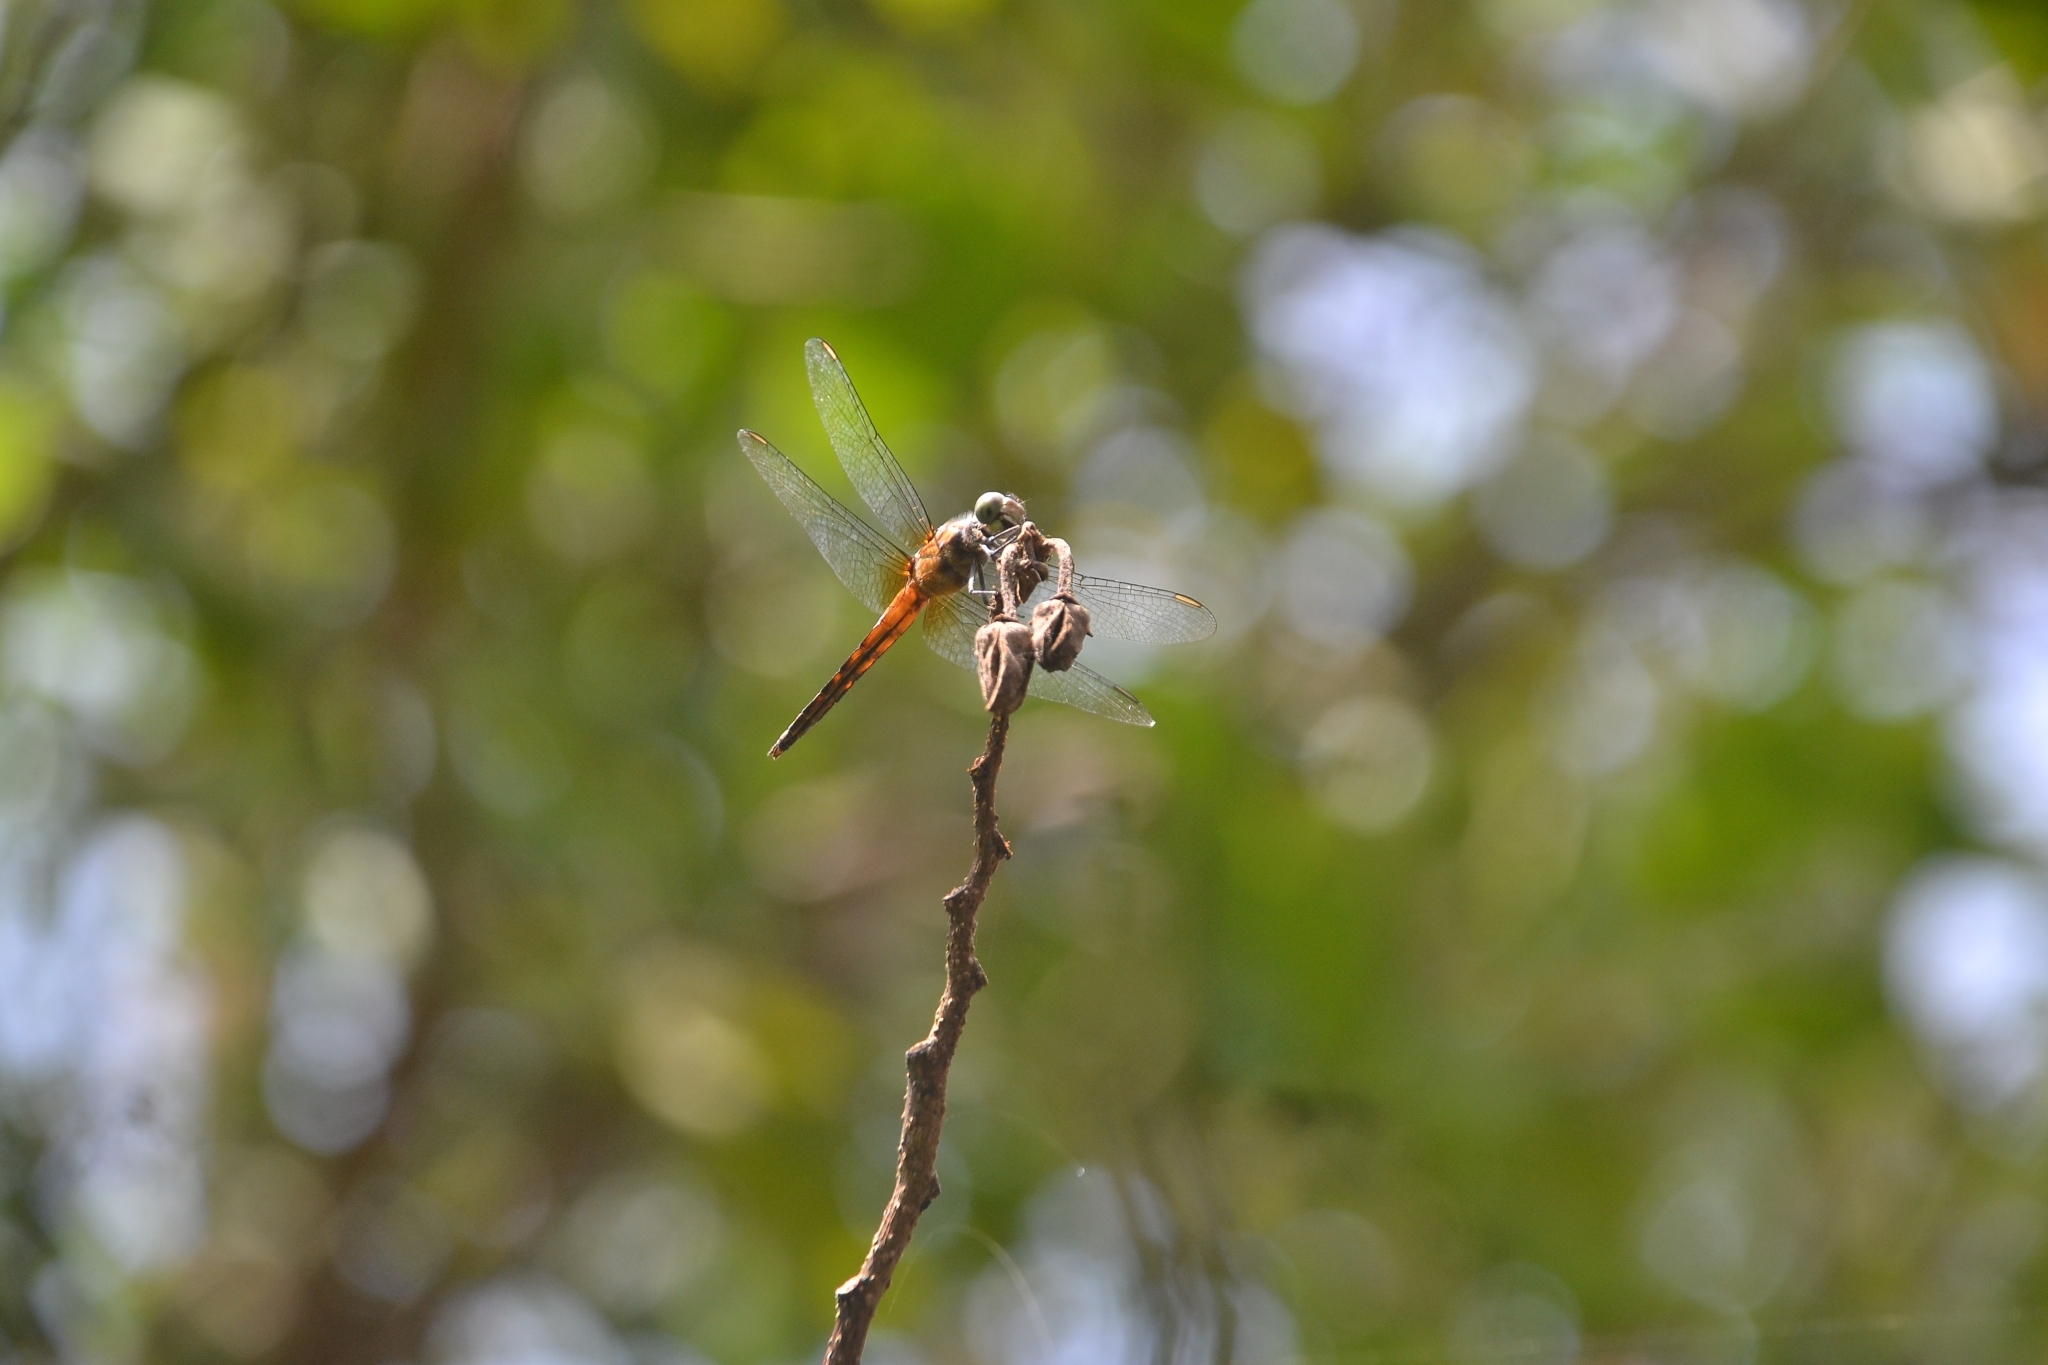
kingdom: Animalia
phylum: Arthropoda
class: Insecta
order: Odonata
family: Libellulidae
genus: Brachydiplax
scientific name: Brachydiplax chalybea
